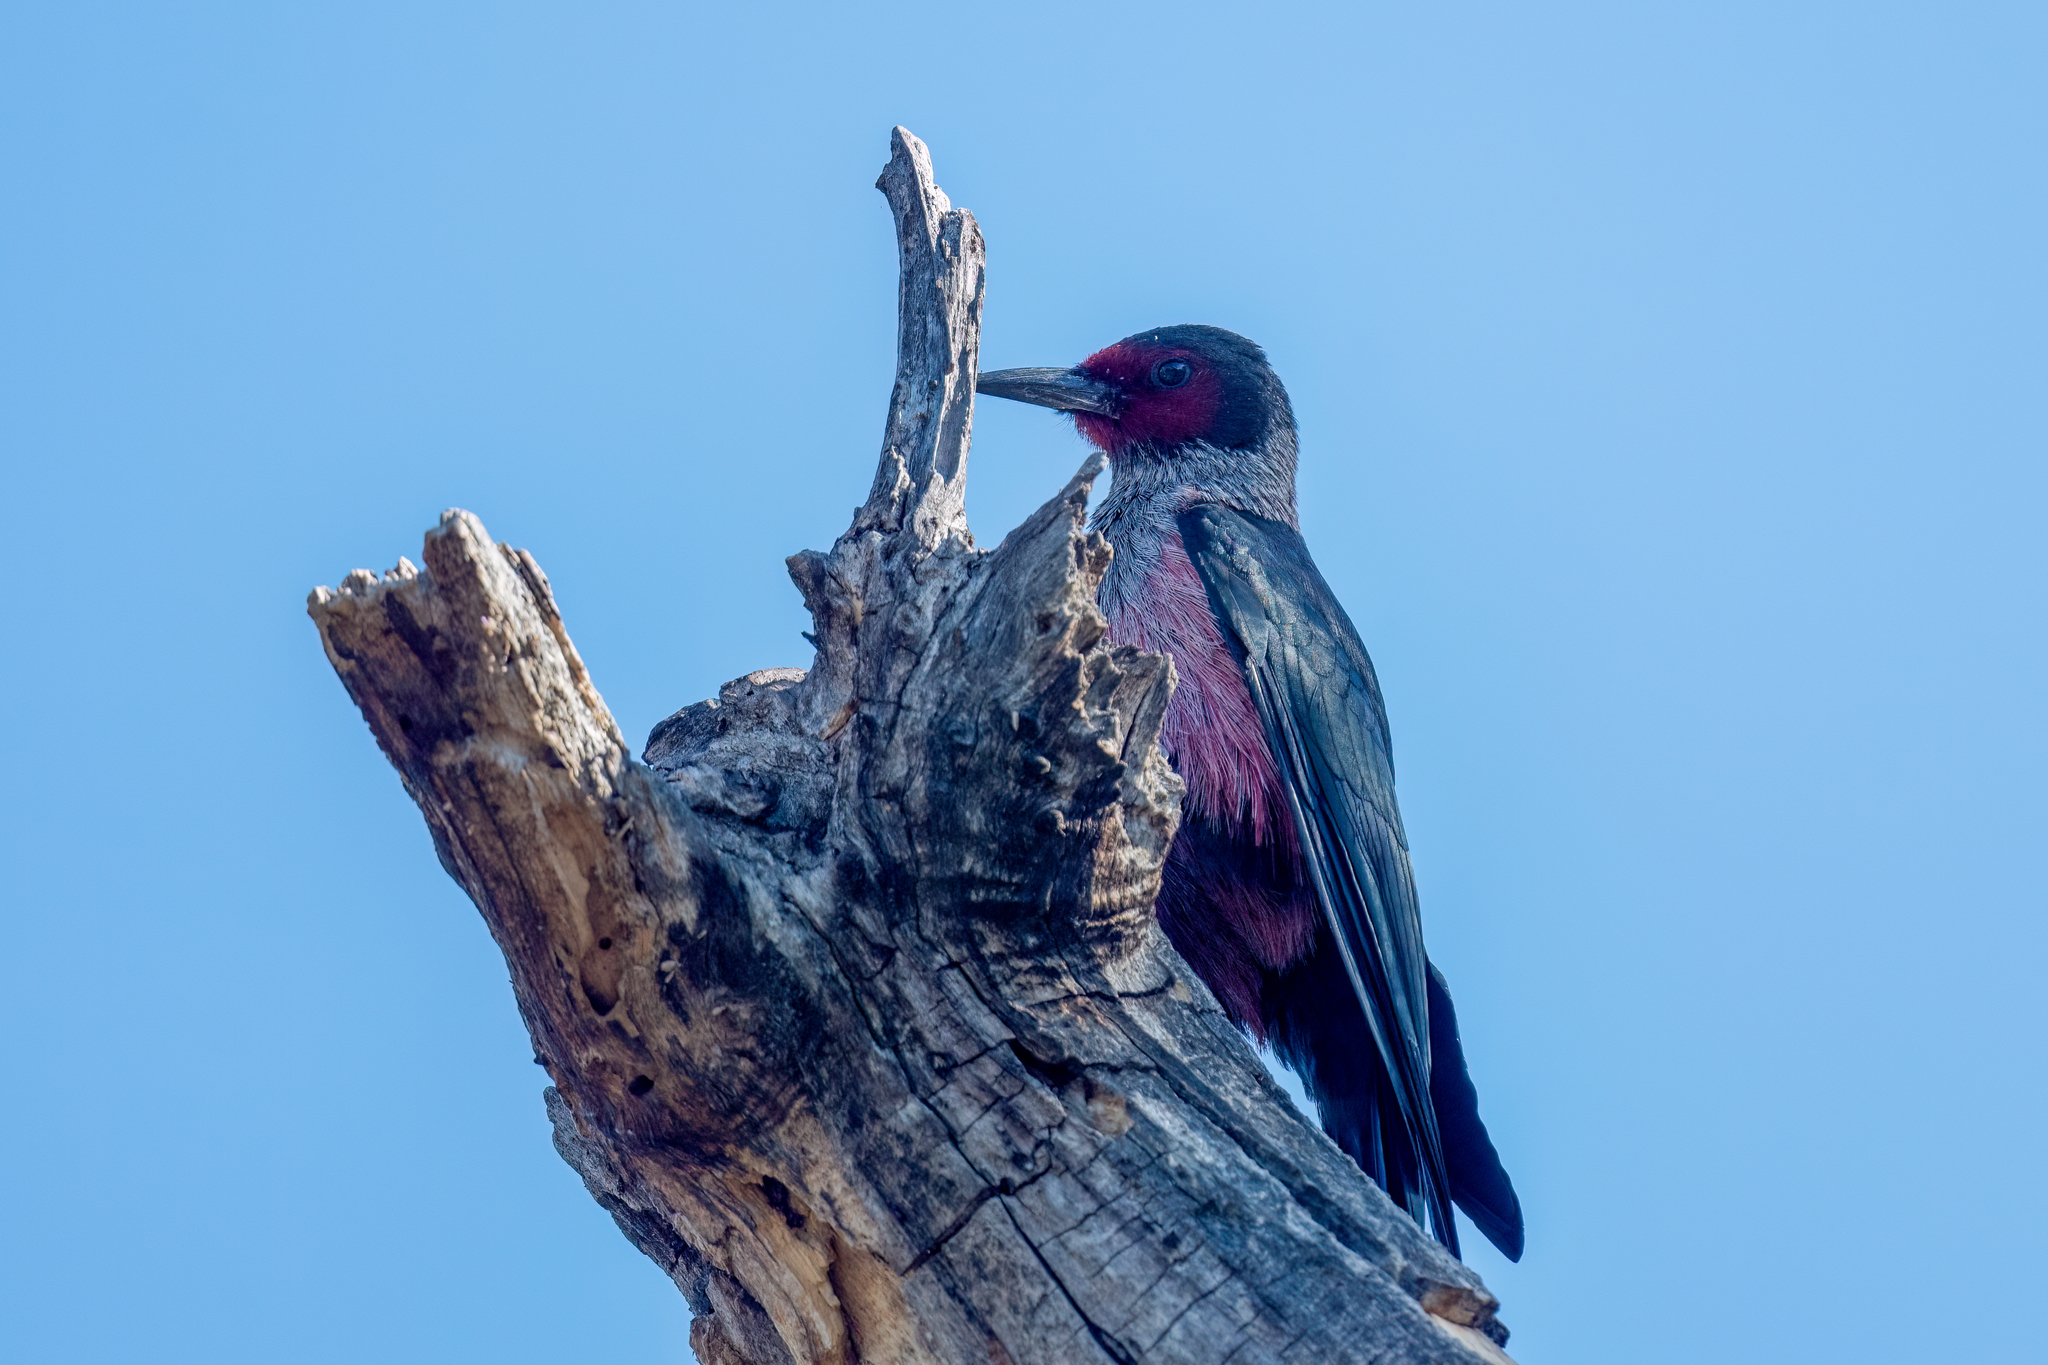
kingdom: Animalia
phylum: Chordata
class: Aves
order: Piciformes
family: Picidae
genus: Melanerpes
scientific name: Melanerpes lewis
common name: Lewis's woodpecker
